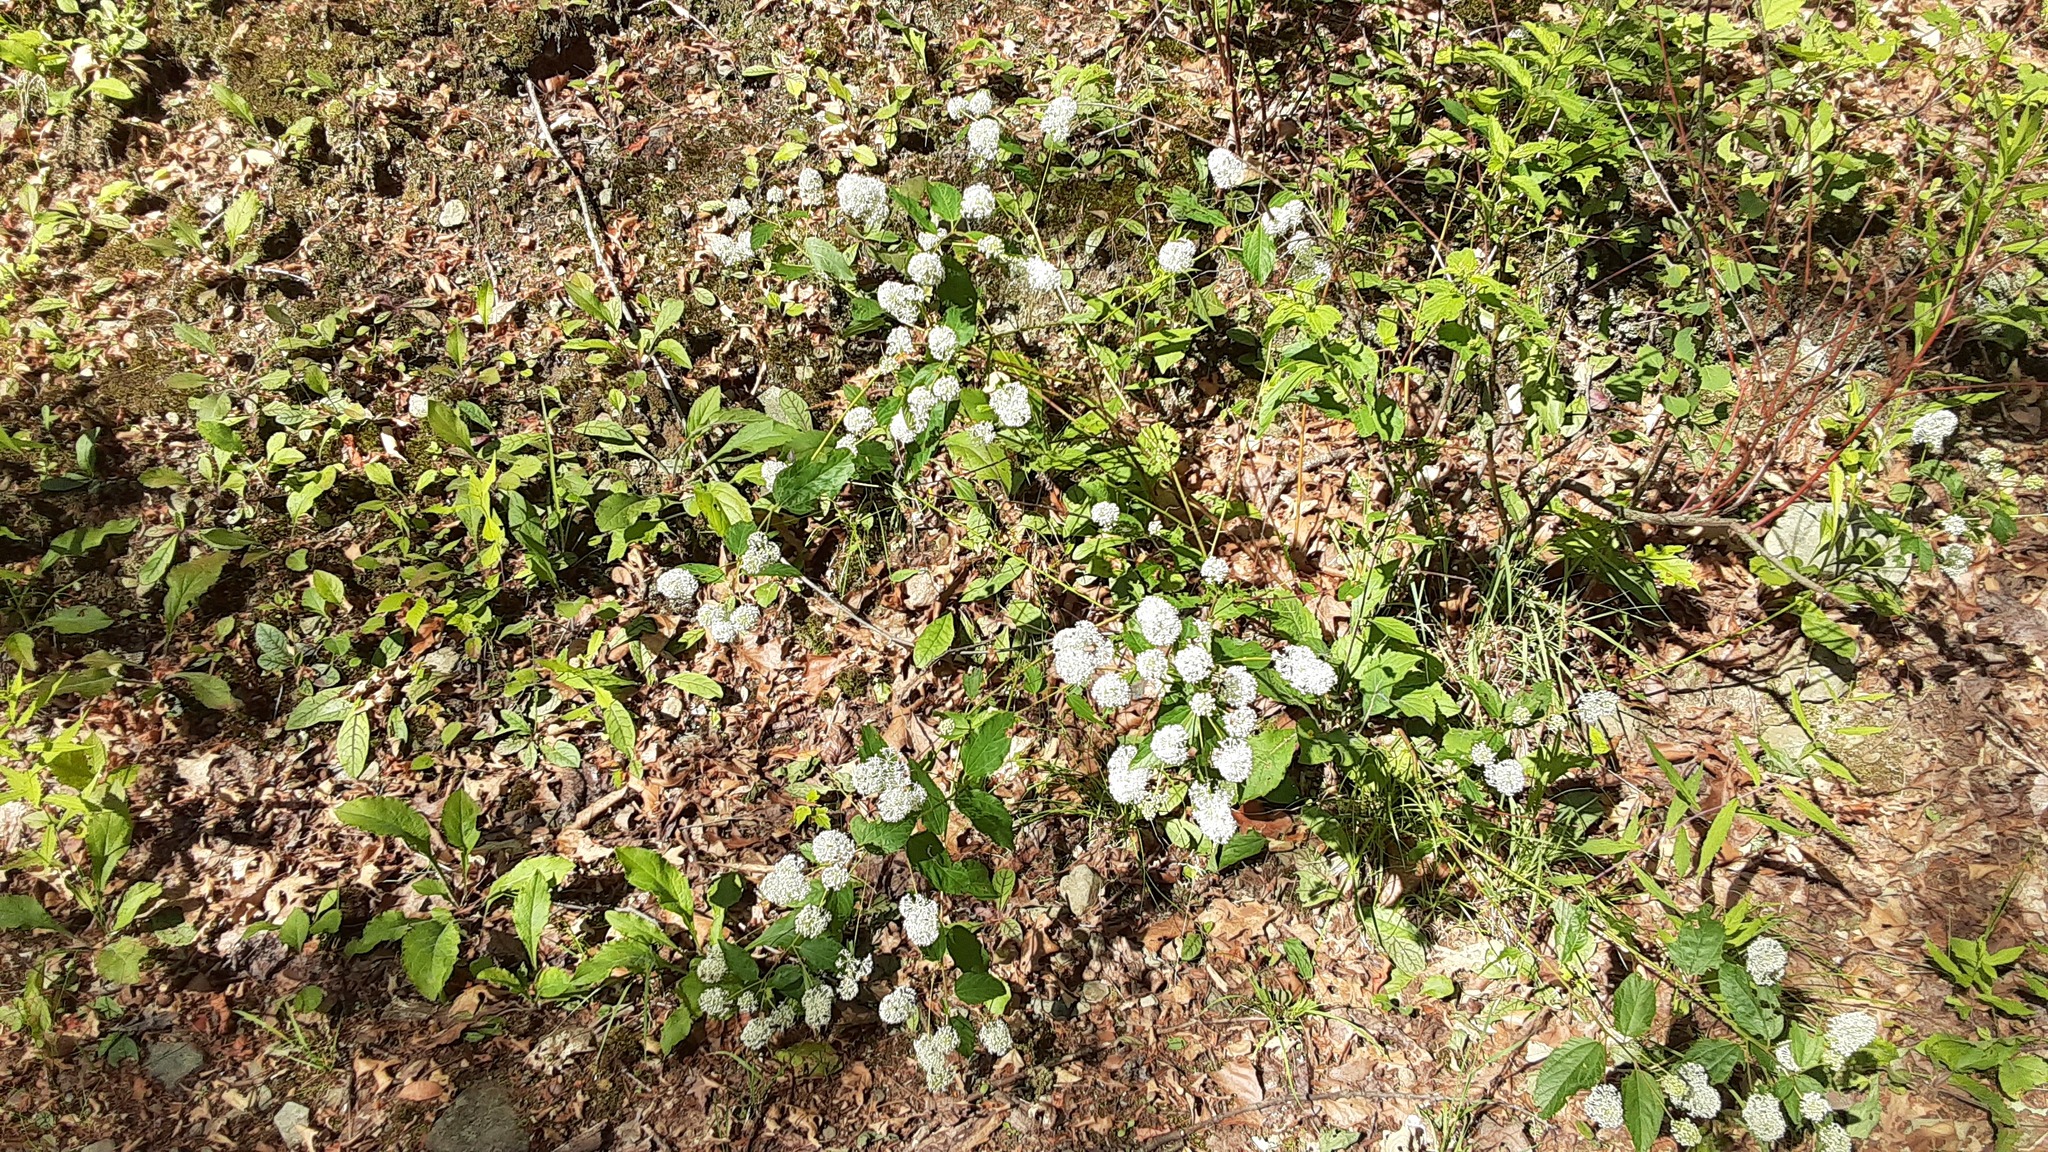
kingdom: Plantae
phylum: Tracheophyta
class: Magnoliopsida
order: Rosales
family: Rhamnaceae
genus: Ceanothus
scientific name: Ceanothus americanus
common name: Redroot
